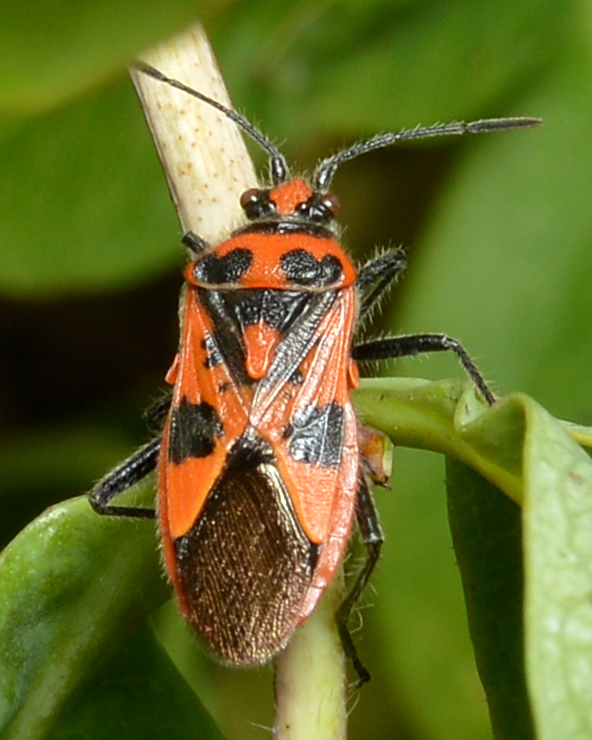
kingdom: Animalia
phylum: Arthropoda
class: Insecta
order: Hemiptera
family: Rhopalidae
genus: Corizus
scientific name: Corizus hyoscyami
